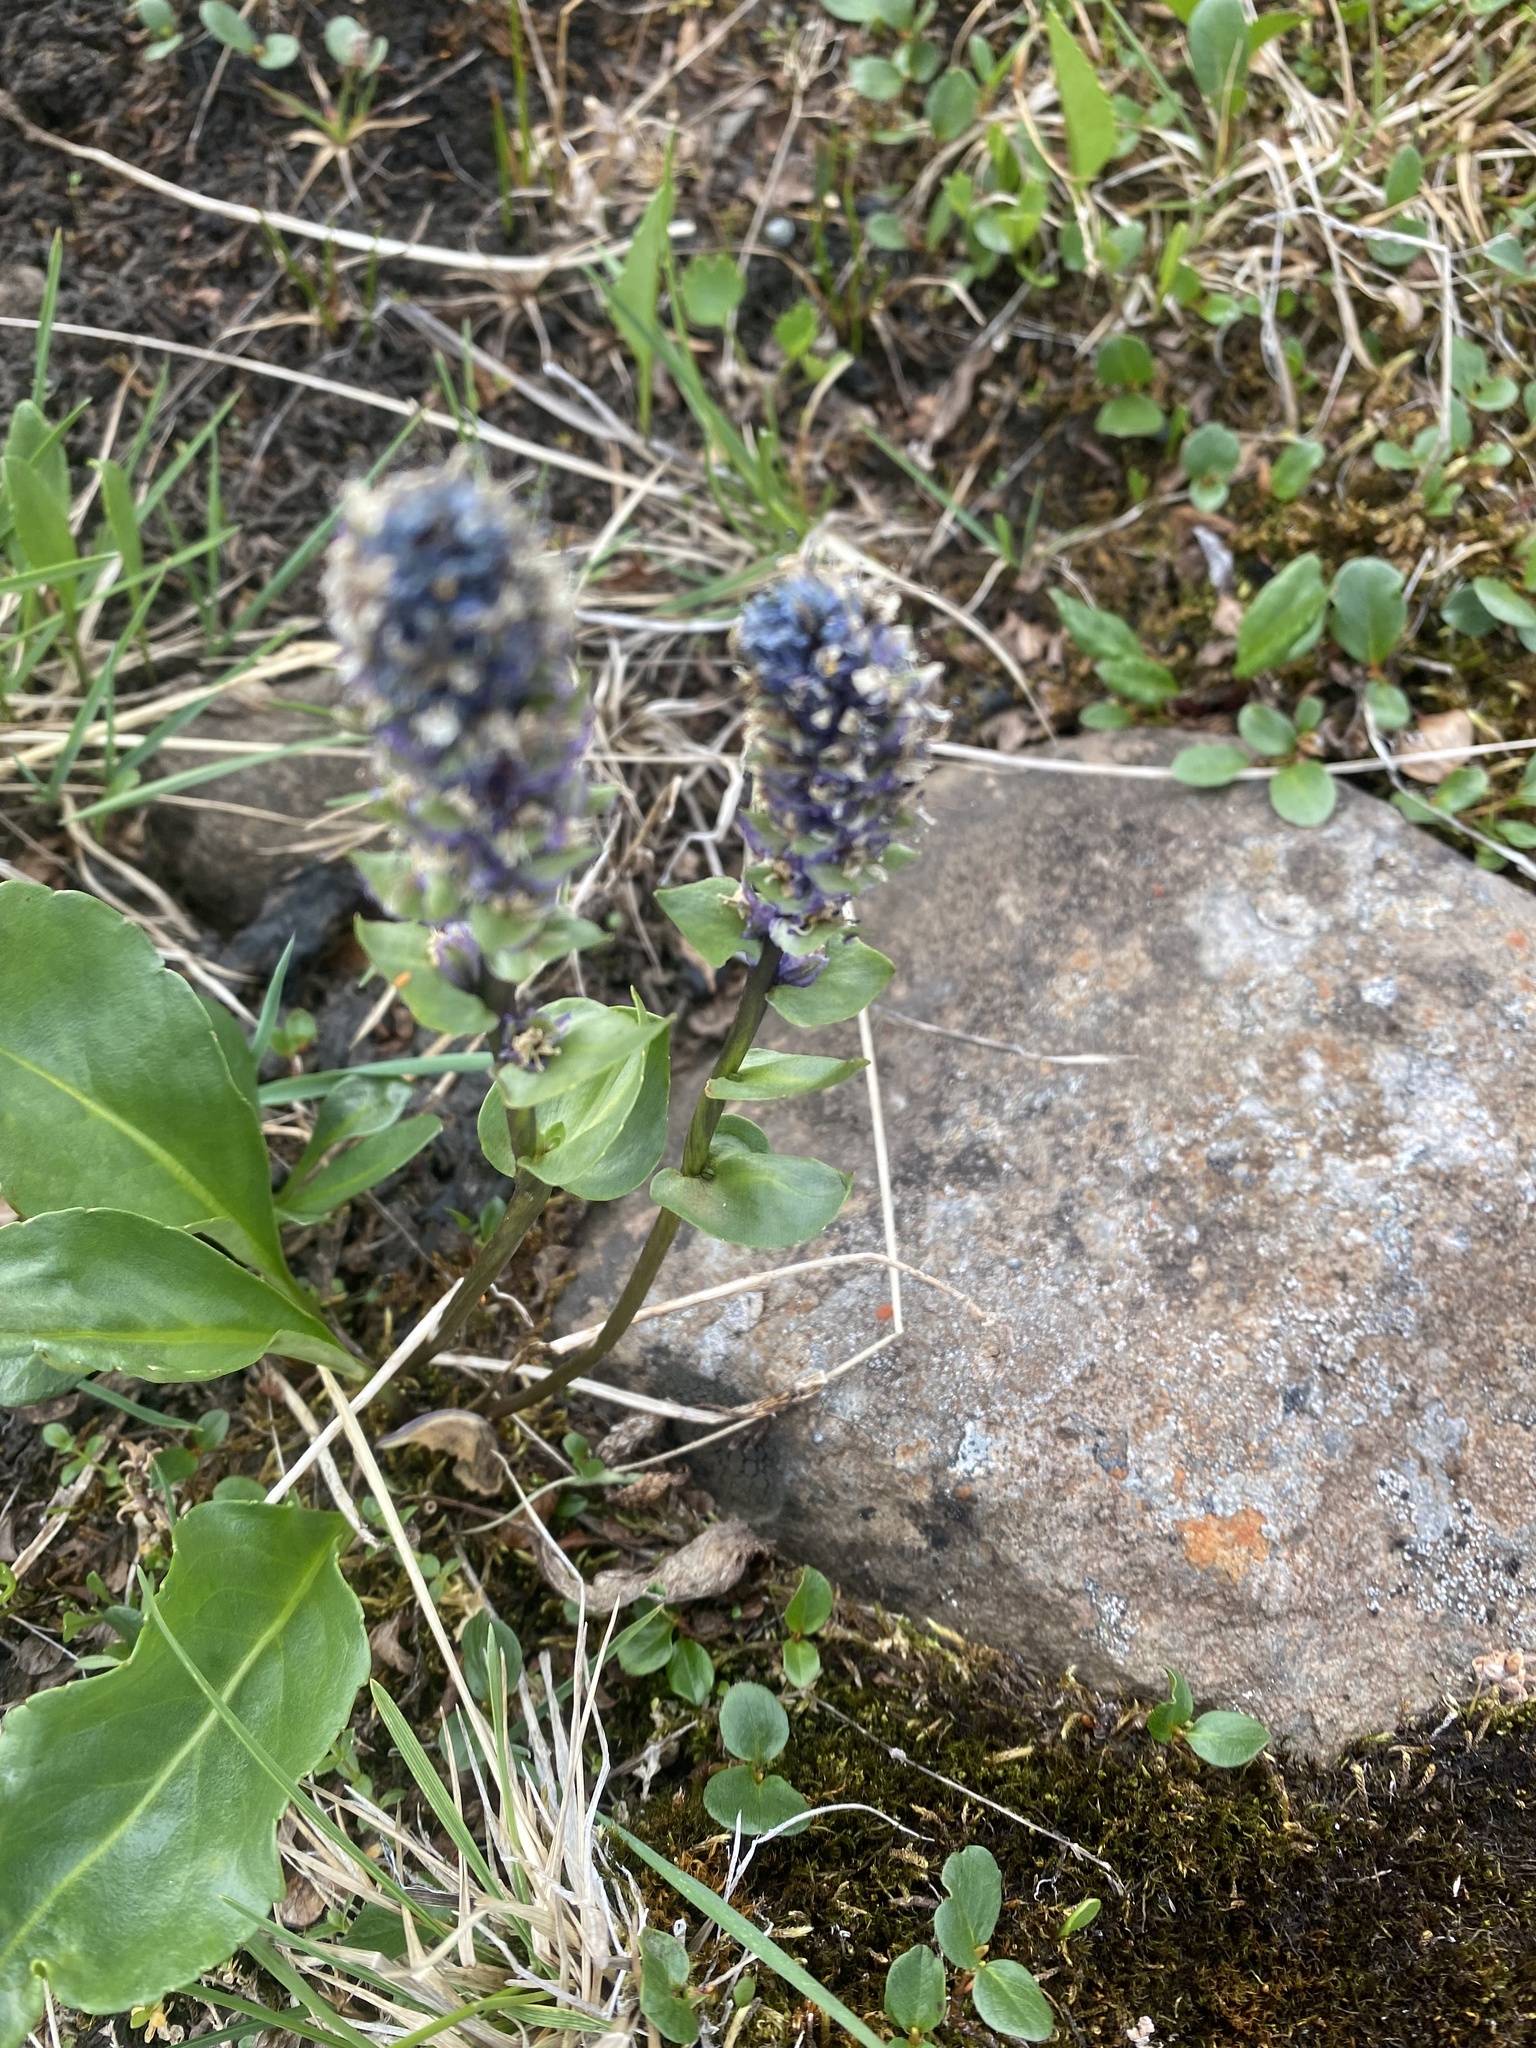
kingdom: Plantae
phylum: Tracheophyta
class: Magnoliopsida
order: Lamiales
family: Plantaginaceae
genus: Lagotis
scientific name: Lagotis glauca
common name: Glaucous weaselsnout
